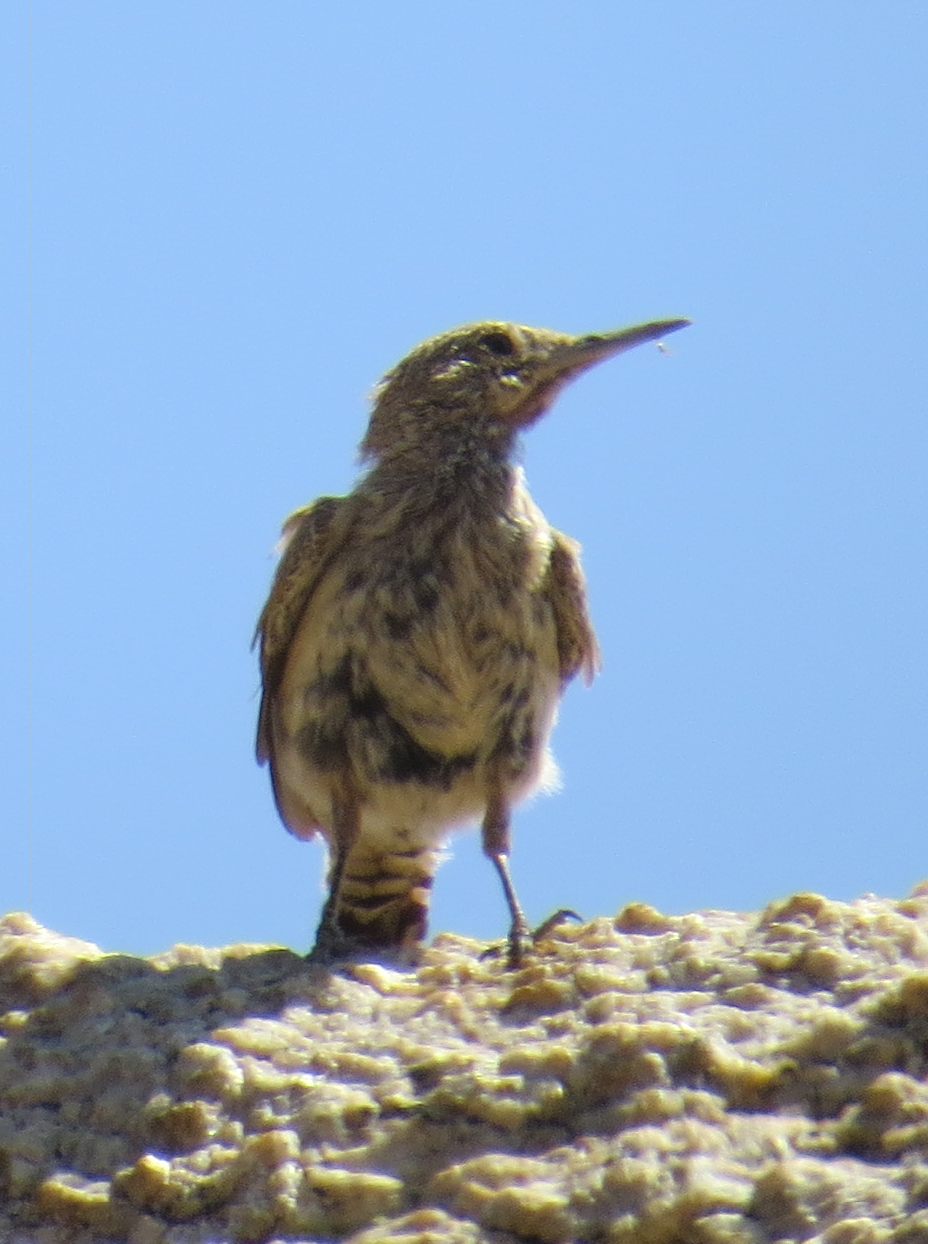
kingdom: Animalia
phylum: Chordata
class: Aves
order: Passeriformes
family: Troglodytidae
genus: Salpinctes
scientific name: Salpinctes obsoletus
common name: Rock wren
